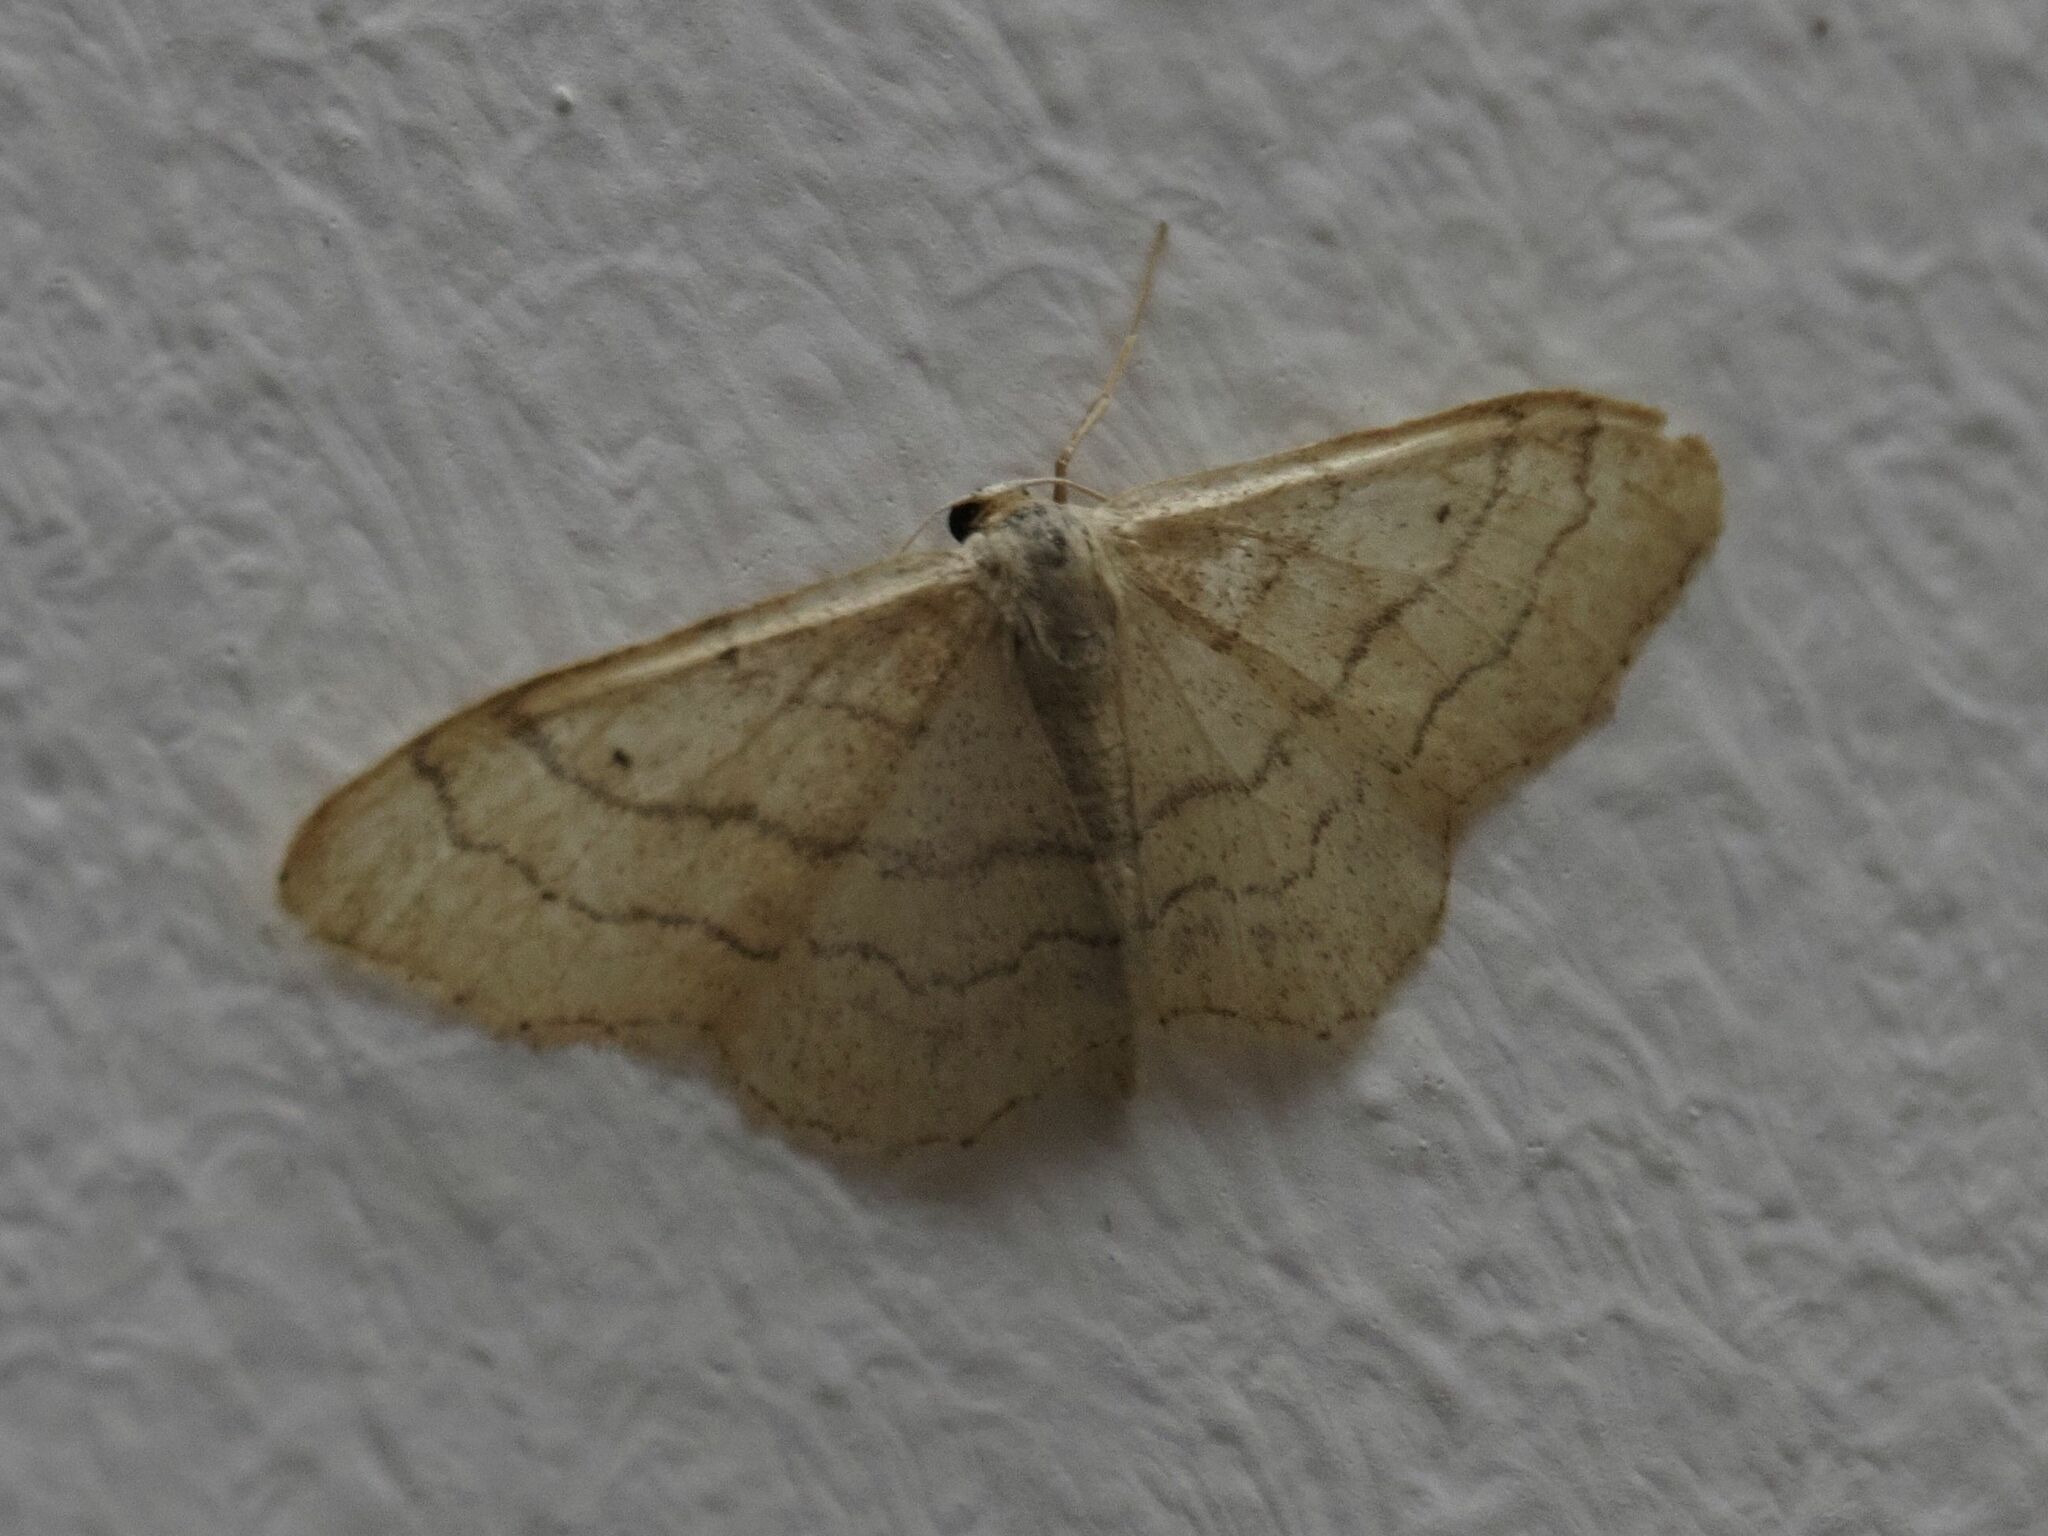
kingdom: Animalia
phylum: Arthropoda
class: Insecta
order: Lepidoptera
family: Geometridae
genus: Idaea
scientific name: Idaea aversata
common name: Riband wave
